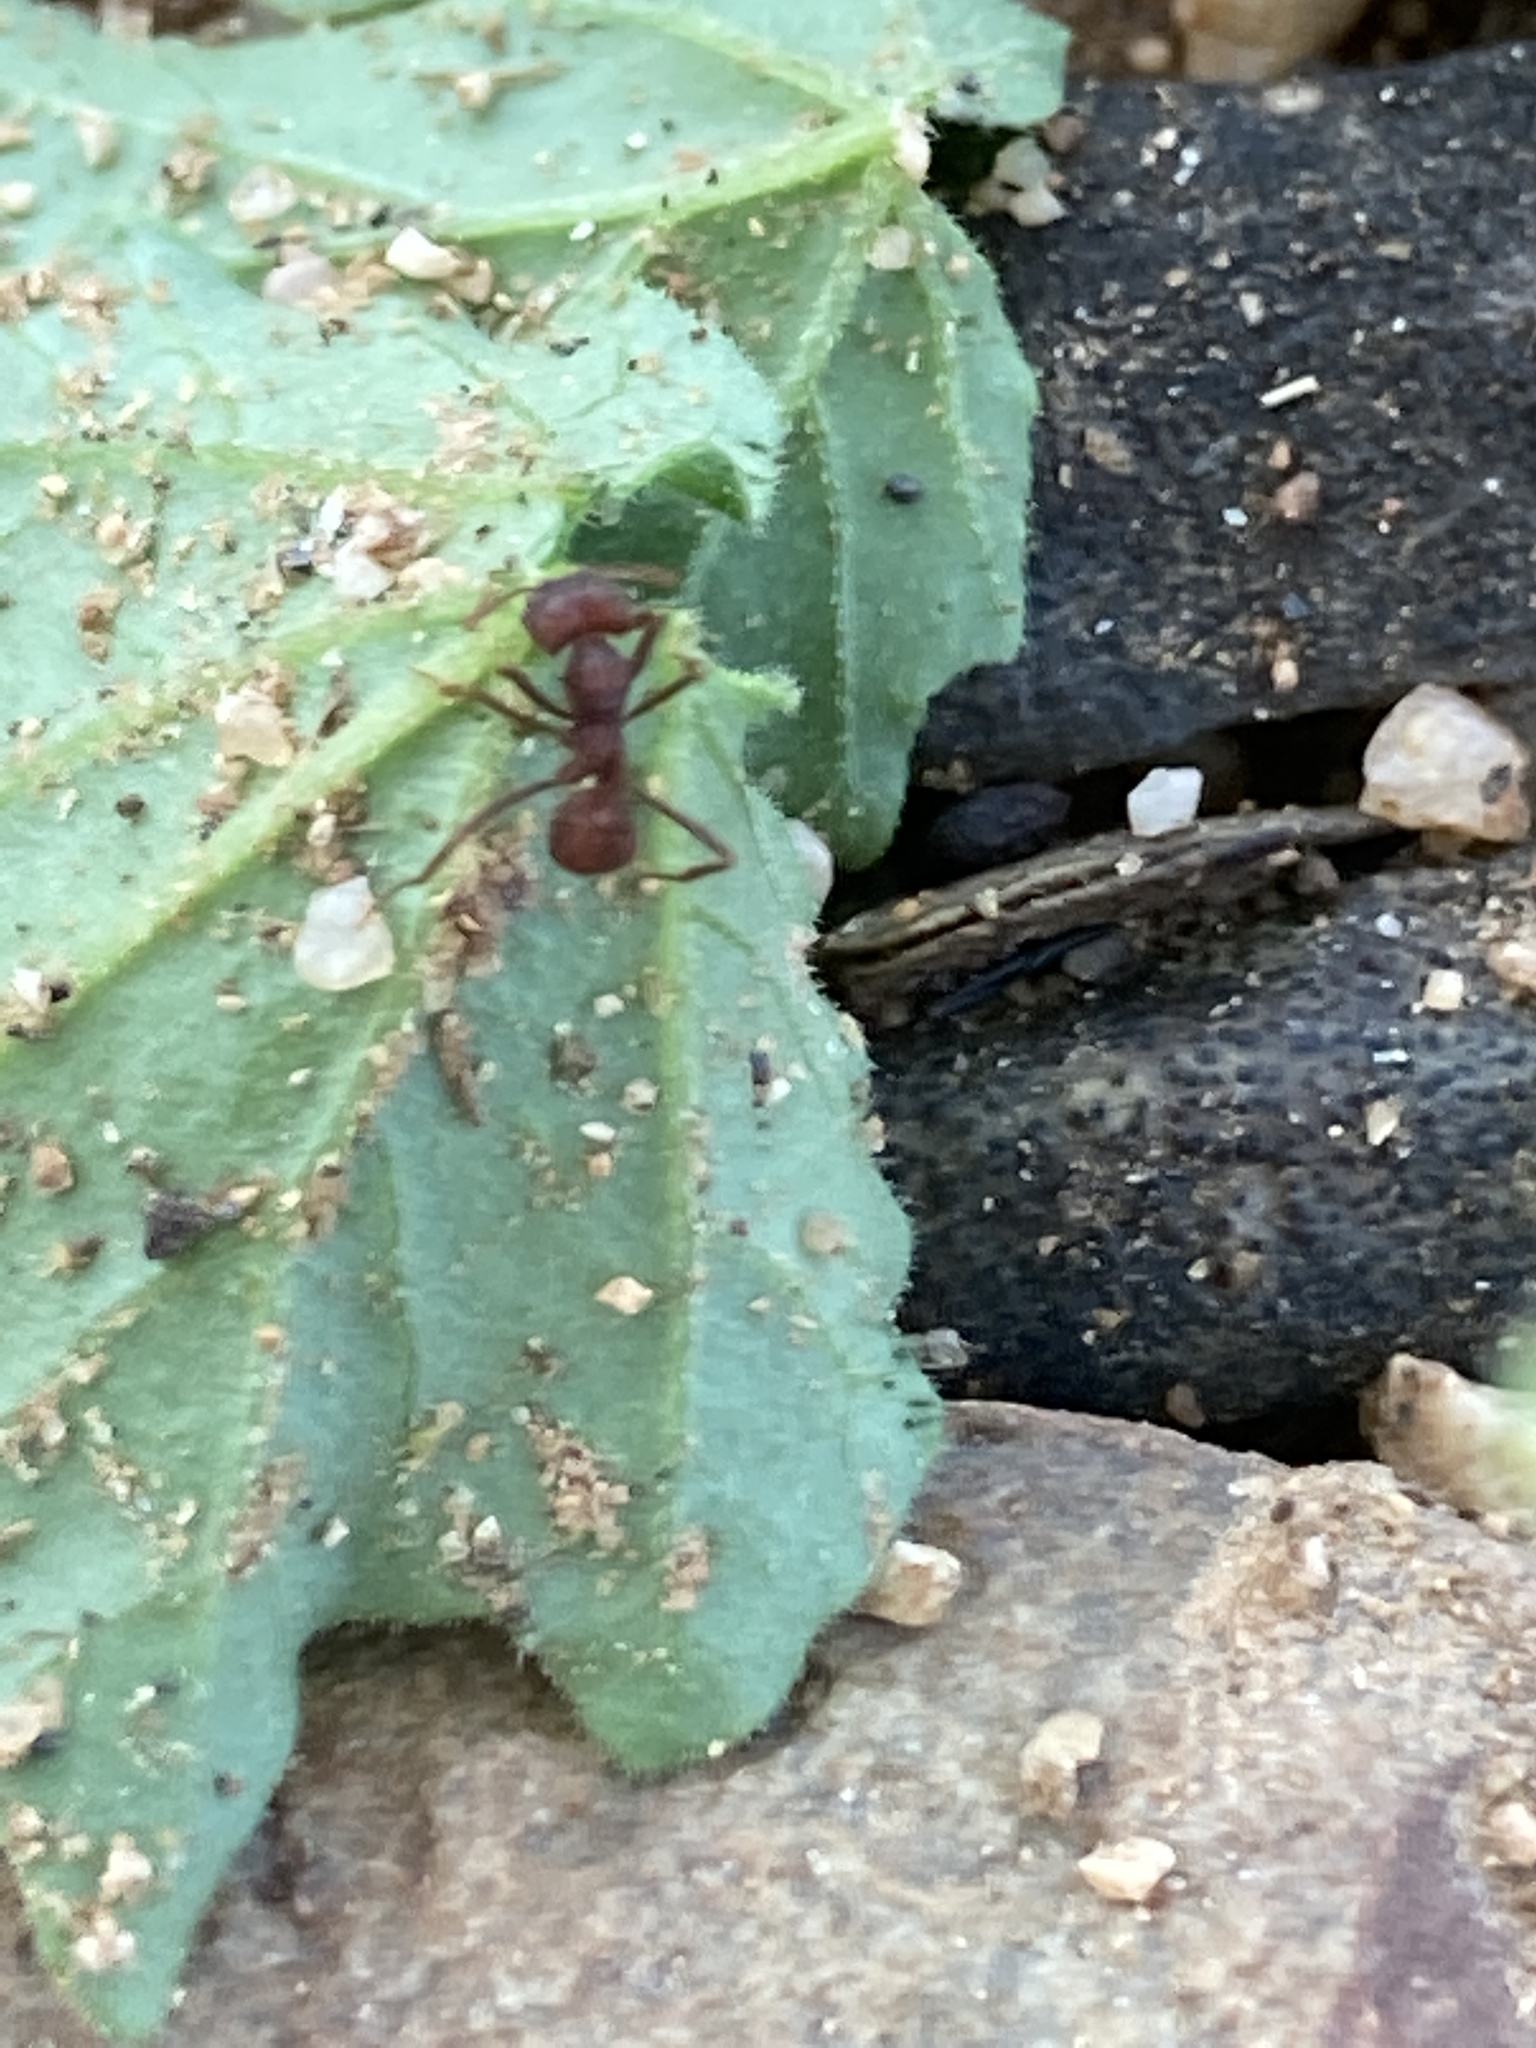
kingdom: Animalia
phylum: Arthropoda
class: Insecta
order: Hymenoptera
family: Formicidae
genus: Acromyrmex
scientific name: Acromyrmex versicolor
